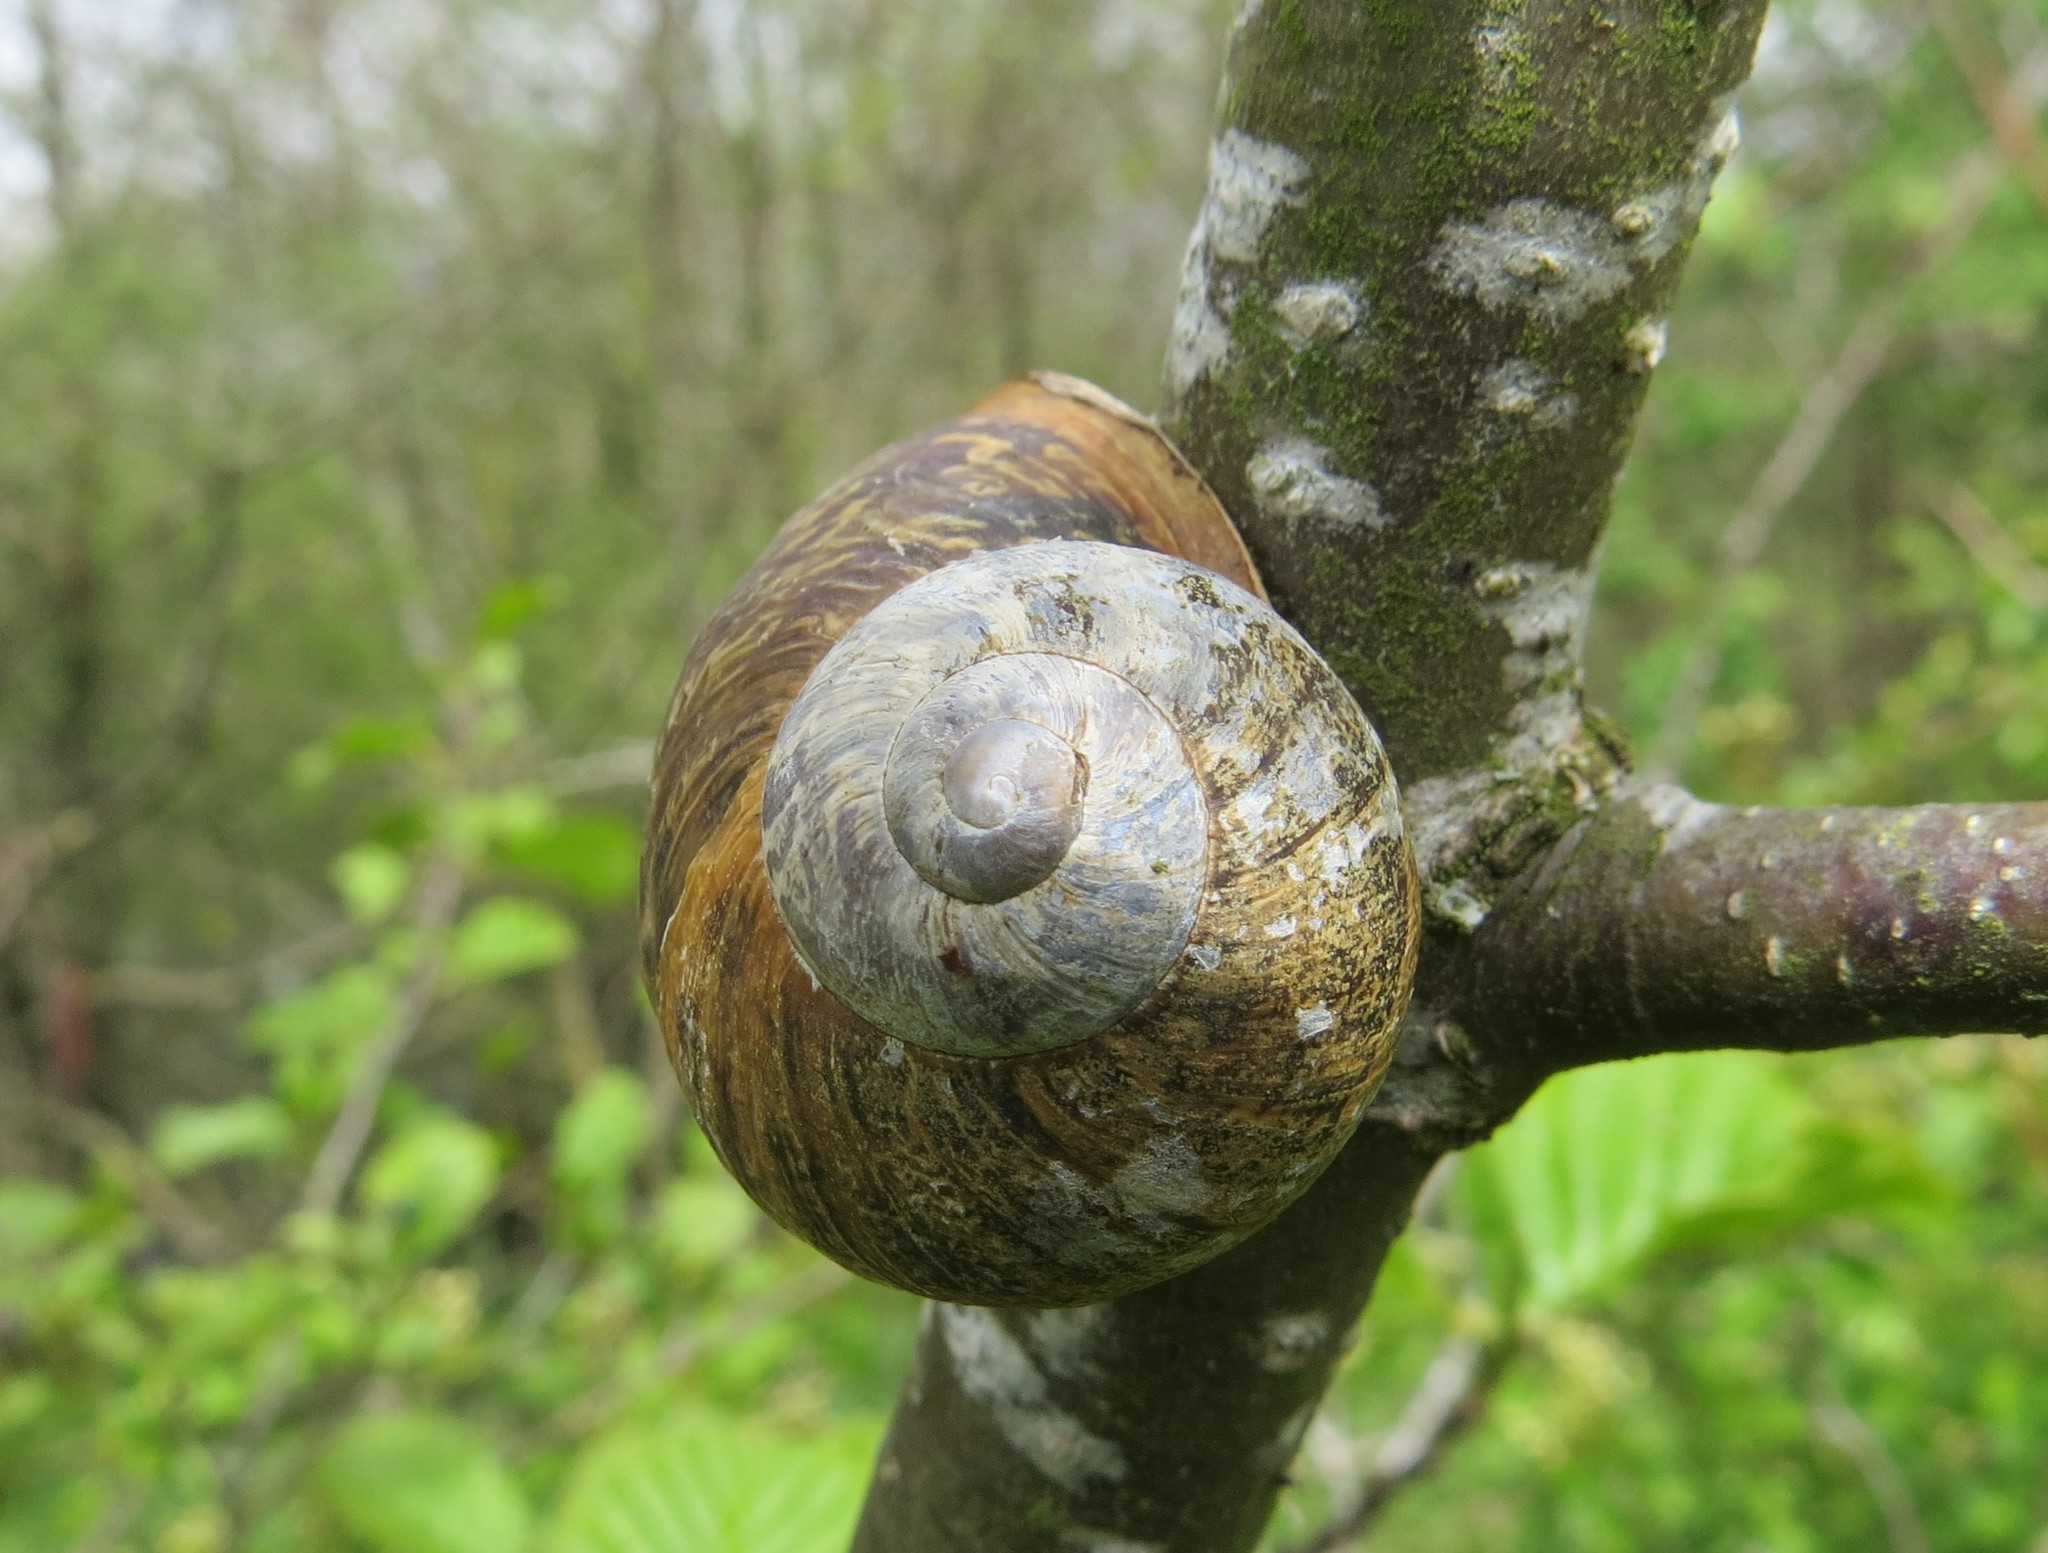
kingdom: Animalia
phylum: Mollusca
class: Gastropoda
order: Stylommatophora
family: Helicidae
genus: Cornu
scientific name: Cornu aspersum
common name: Brown garden snail
